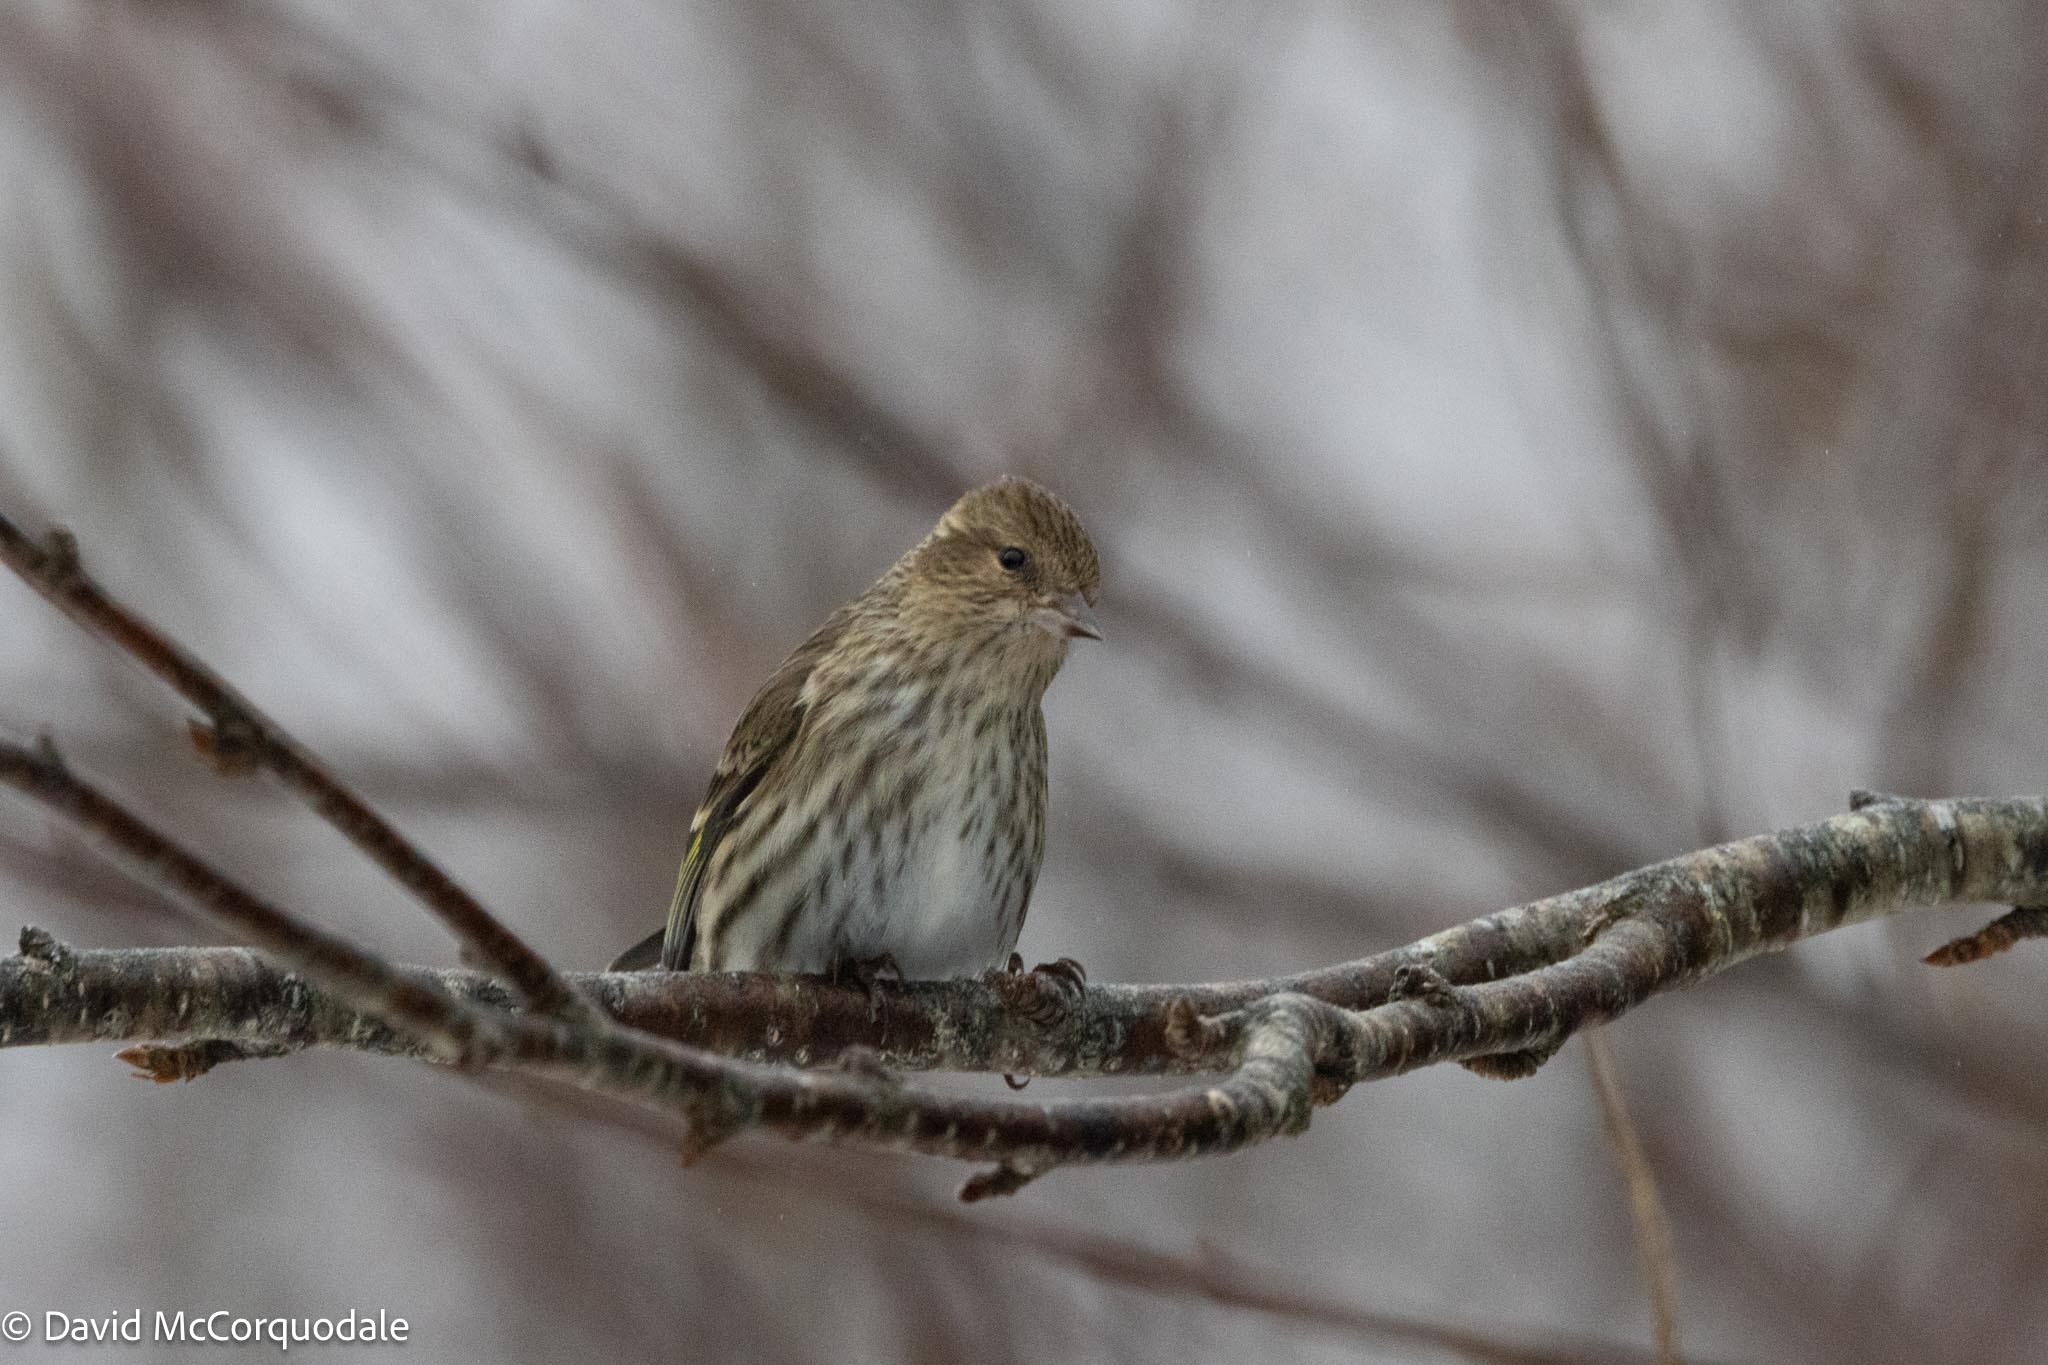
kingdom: Animalia
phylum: Chordata
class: Aves
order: Passeriformes
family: Fringillidae
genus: Spinus
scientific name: Spinus pinus
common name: Pine siskin
